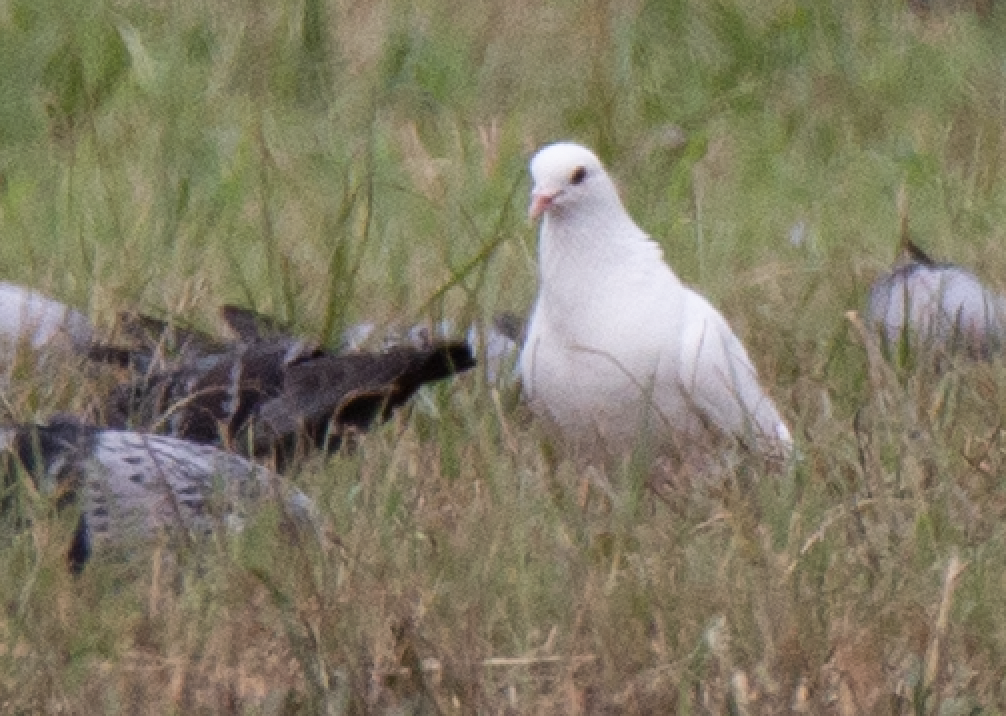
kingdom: Animalia
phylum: Chordata
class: Aves
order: Columbiformes
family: Columbidae
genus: Columba
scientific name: Columba livia
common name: Rock pigeon
